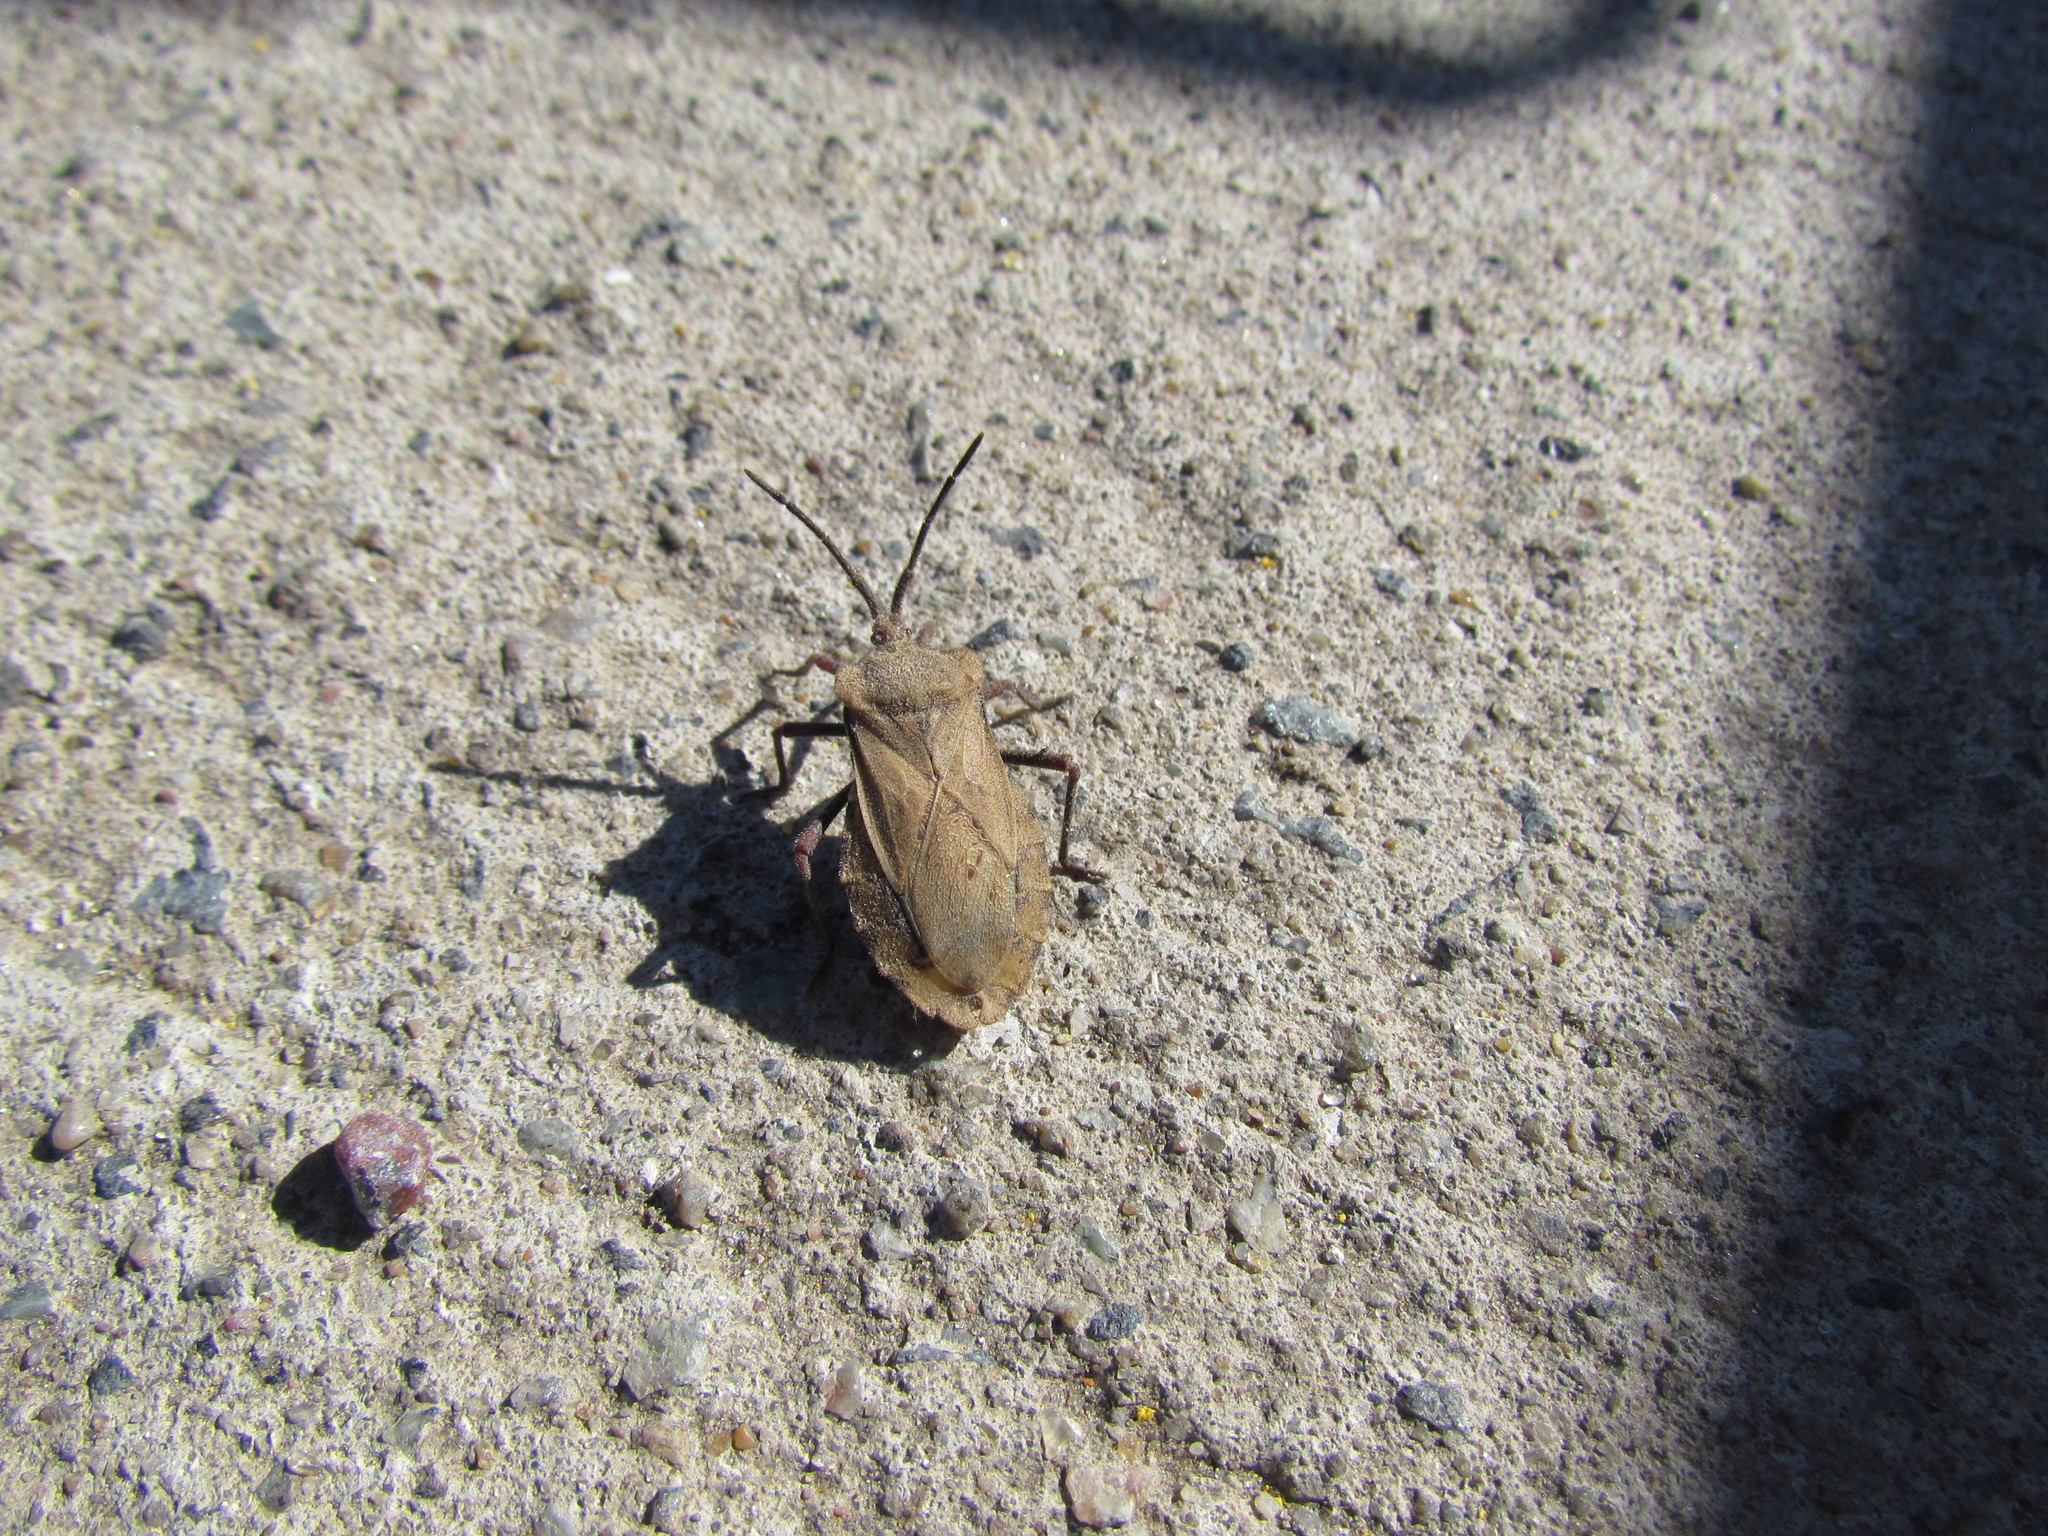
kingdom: Animalia
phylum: Arthropoda
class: Insecta
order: Hemiptera
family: Coreidae
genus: Spartocera
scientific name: Spartocera fusca
